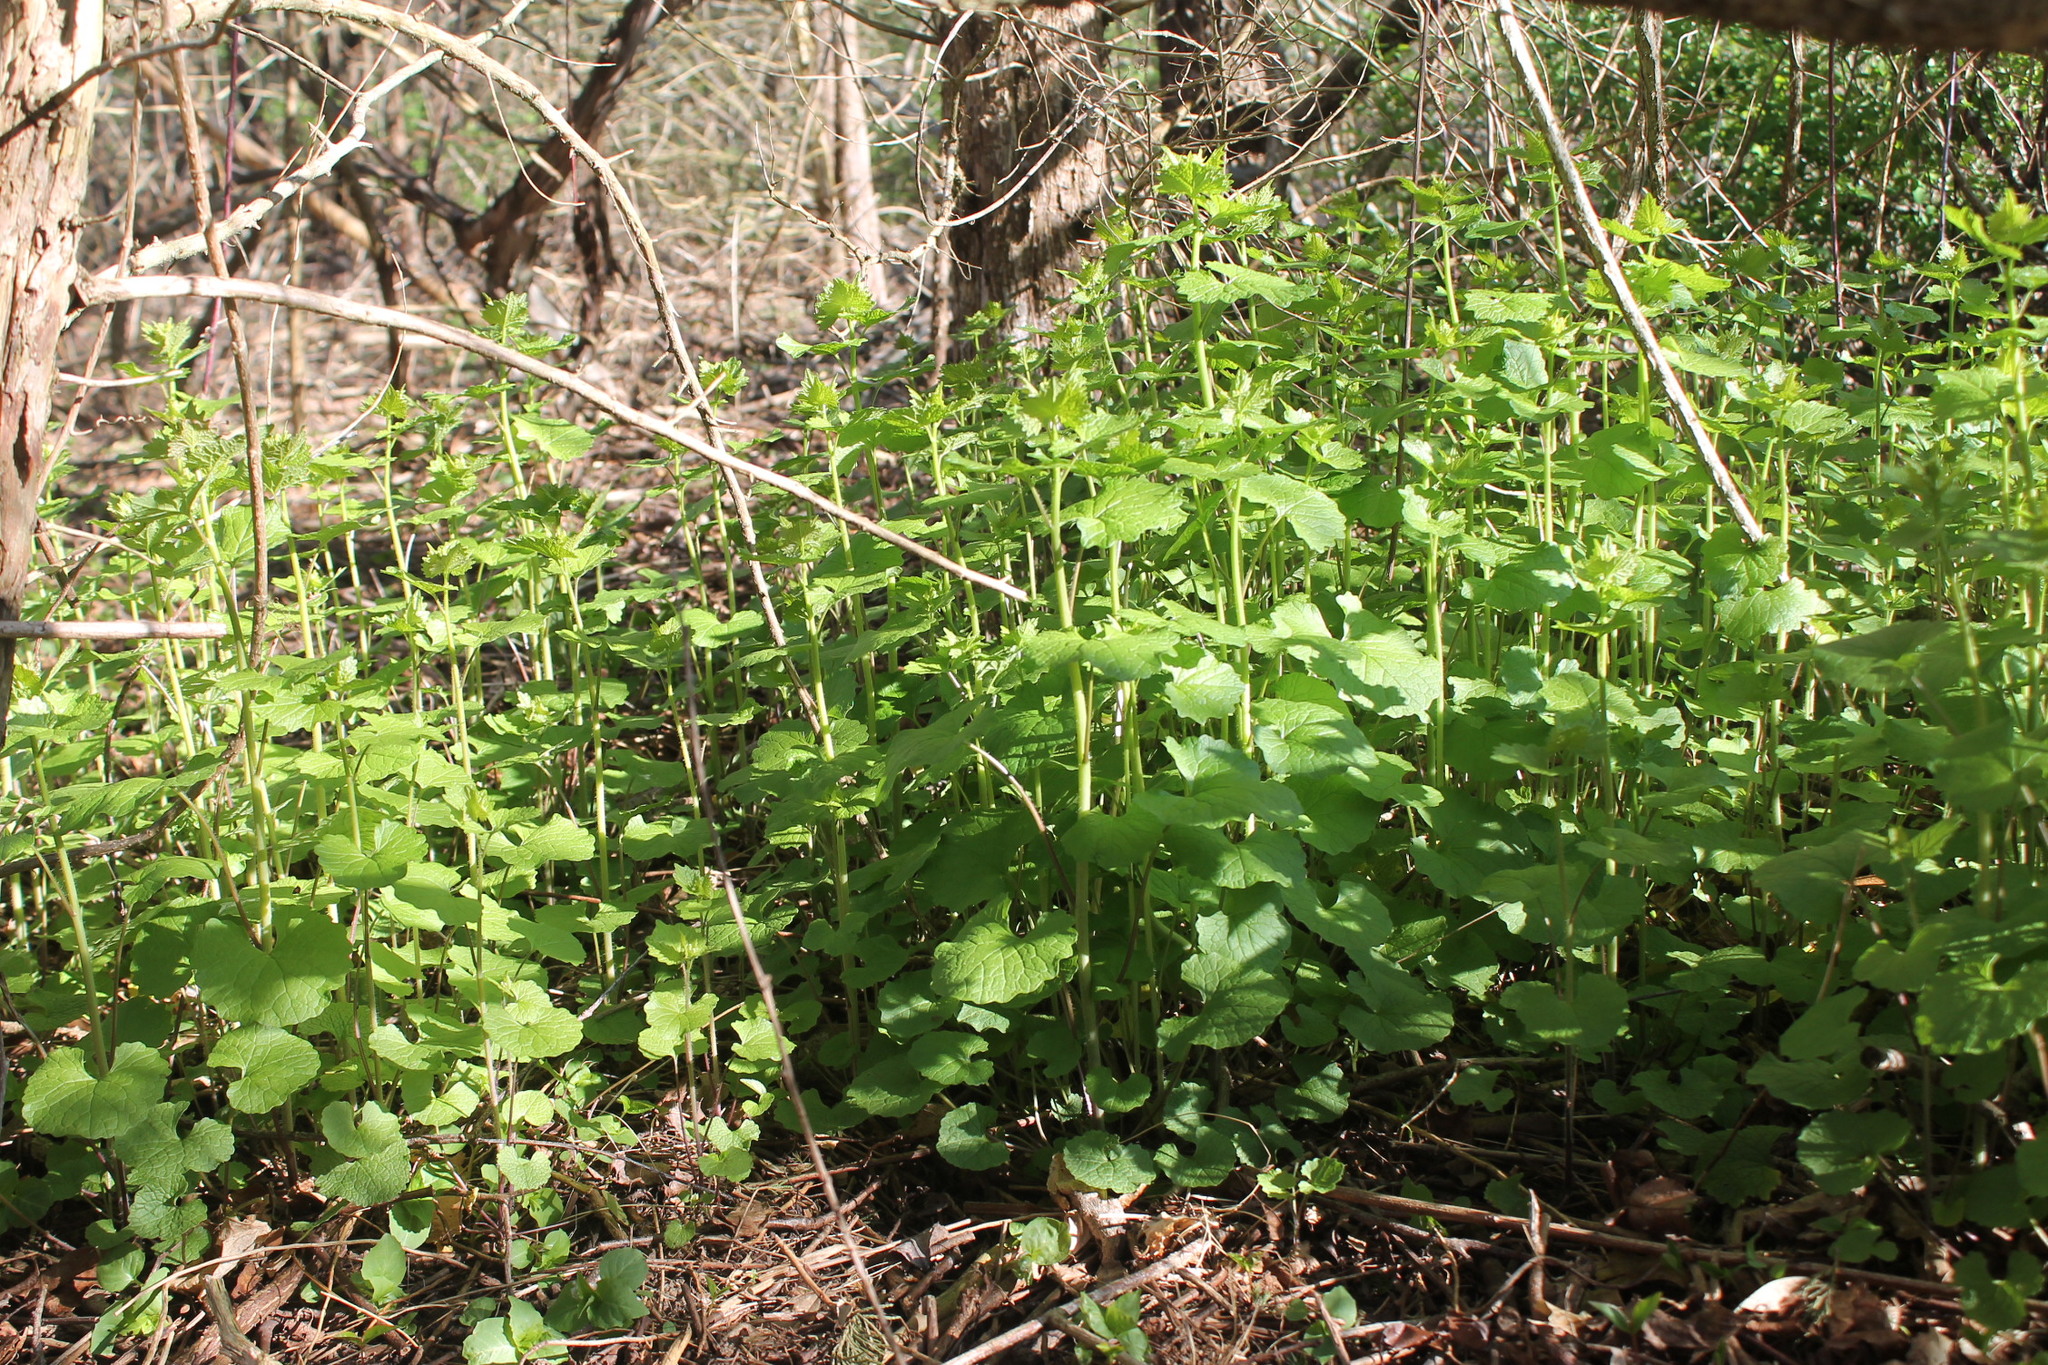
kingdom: Plantae
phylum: Tracheophyta
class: Magnoliopsida
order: Brassicales
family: Brassicaceae
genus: Alliaria
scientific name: Alliaria petiolata
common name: Garlic mustard
